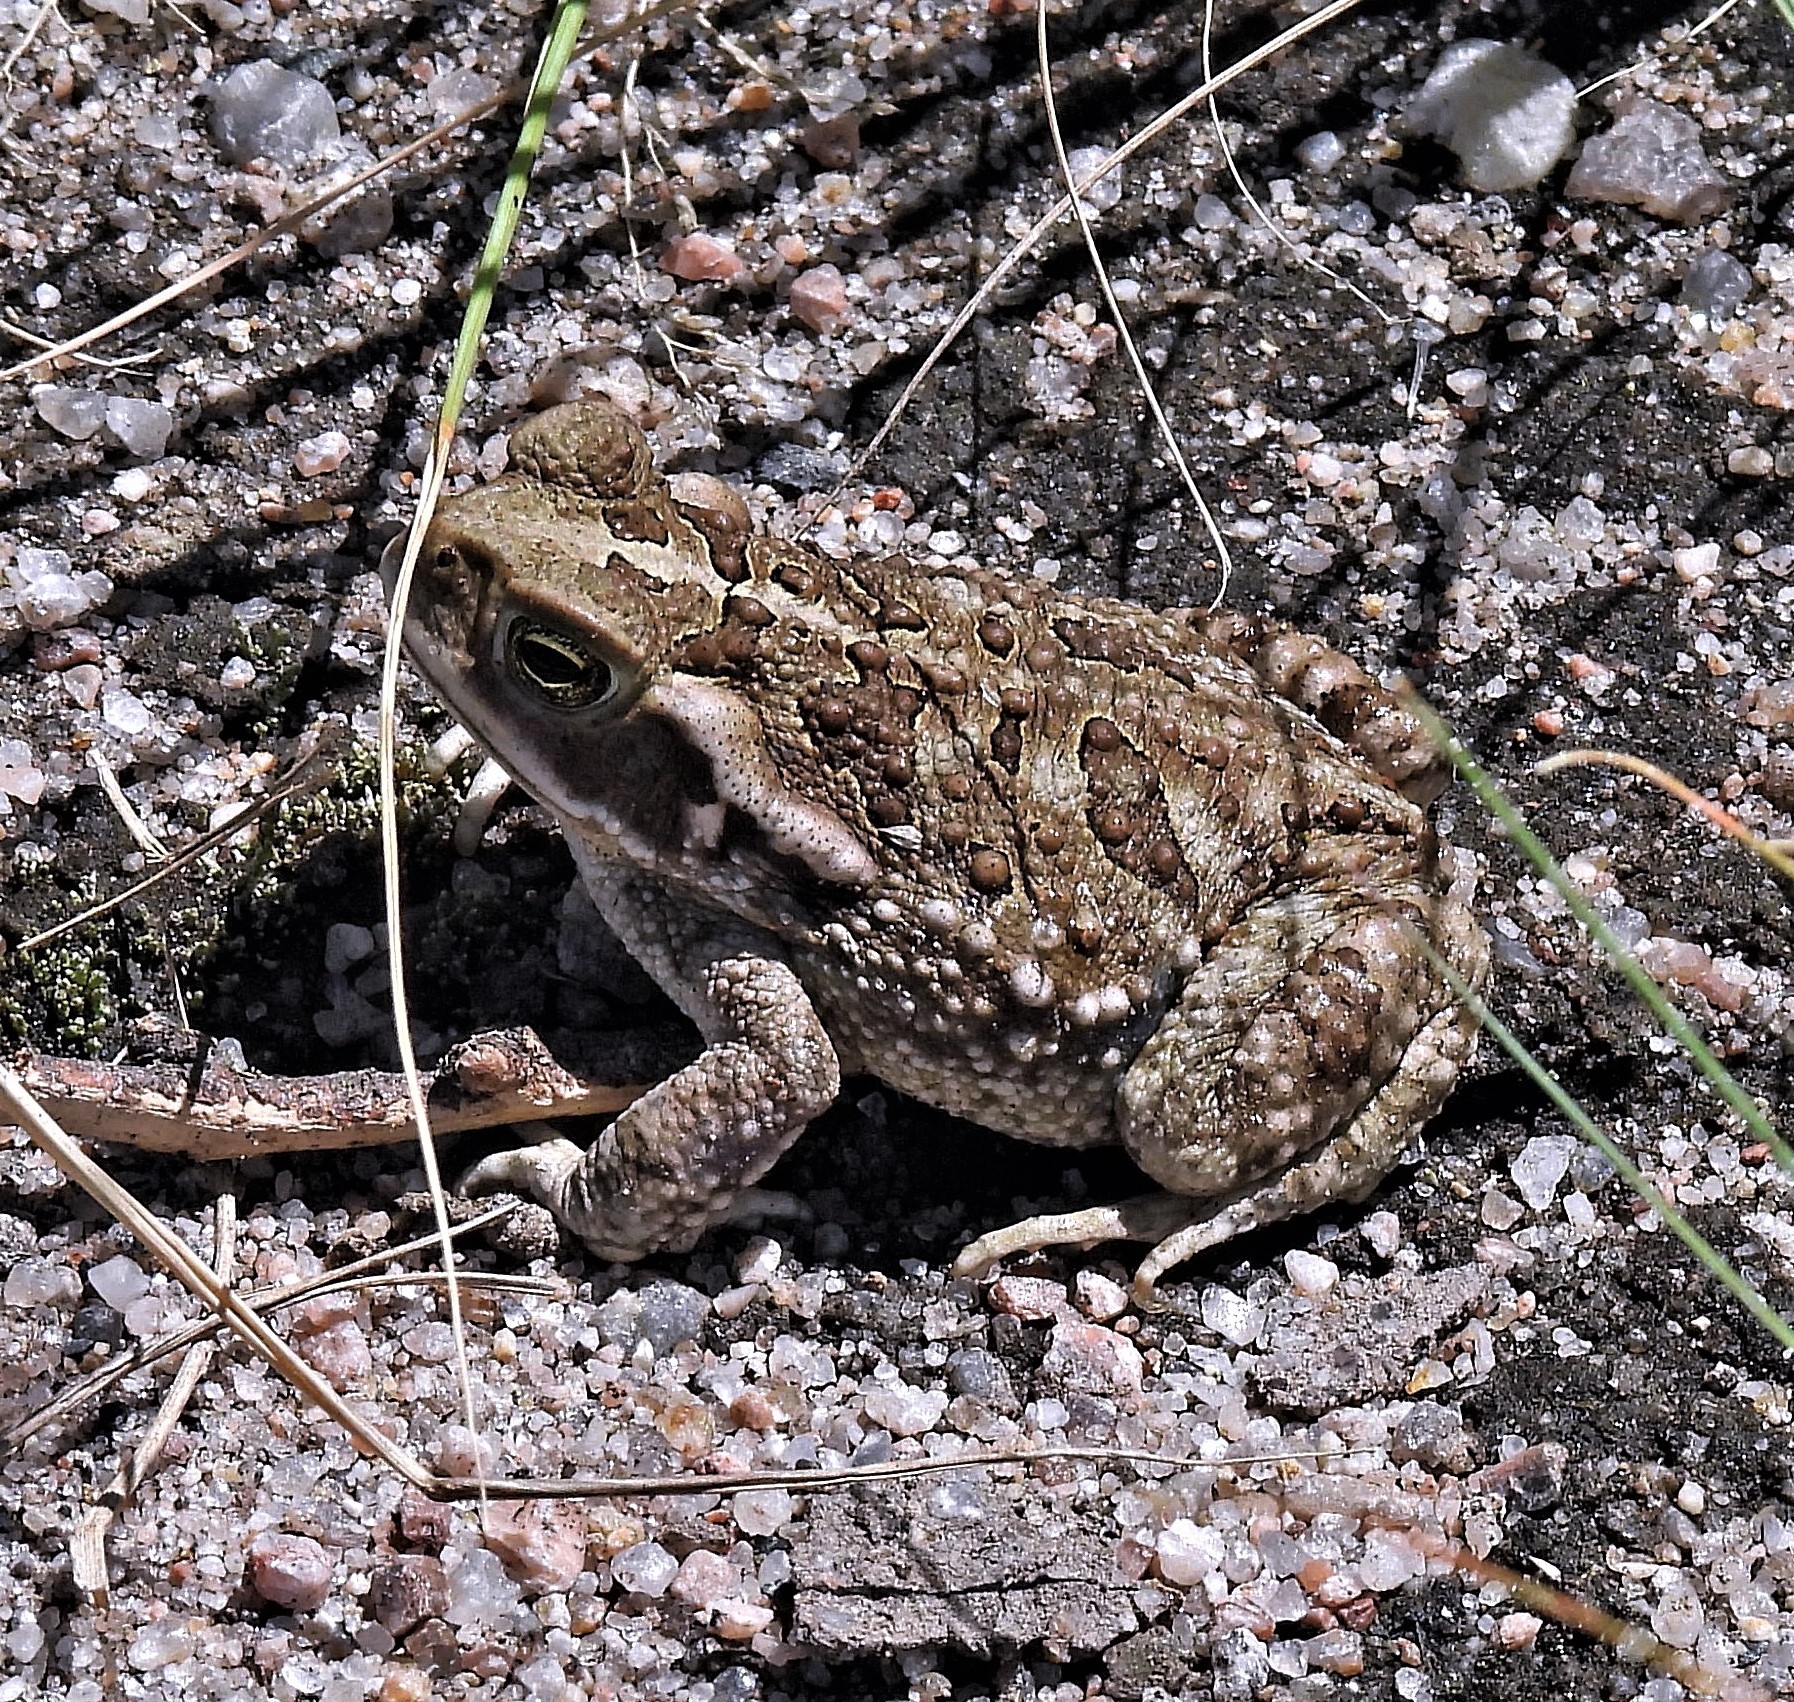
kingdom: Animalia
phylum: Chordata
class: Amphibia
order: Anura
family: Bufonidae
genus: Rhinella
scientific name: Rhinella arenarum
